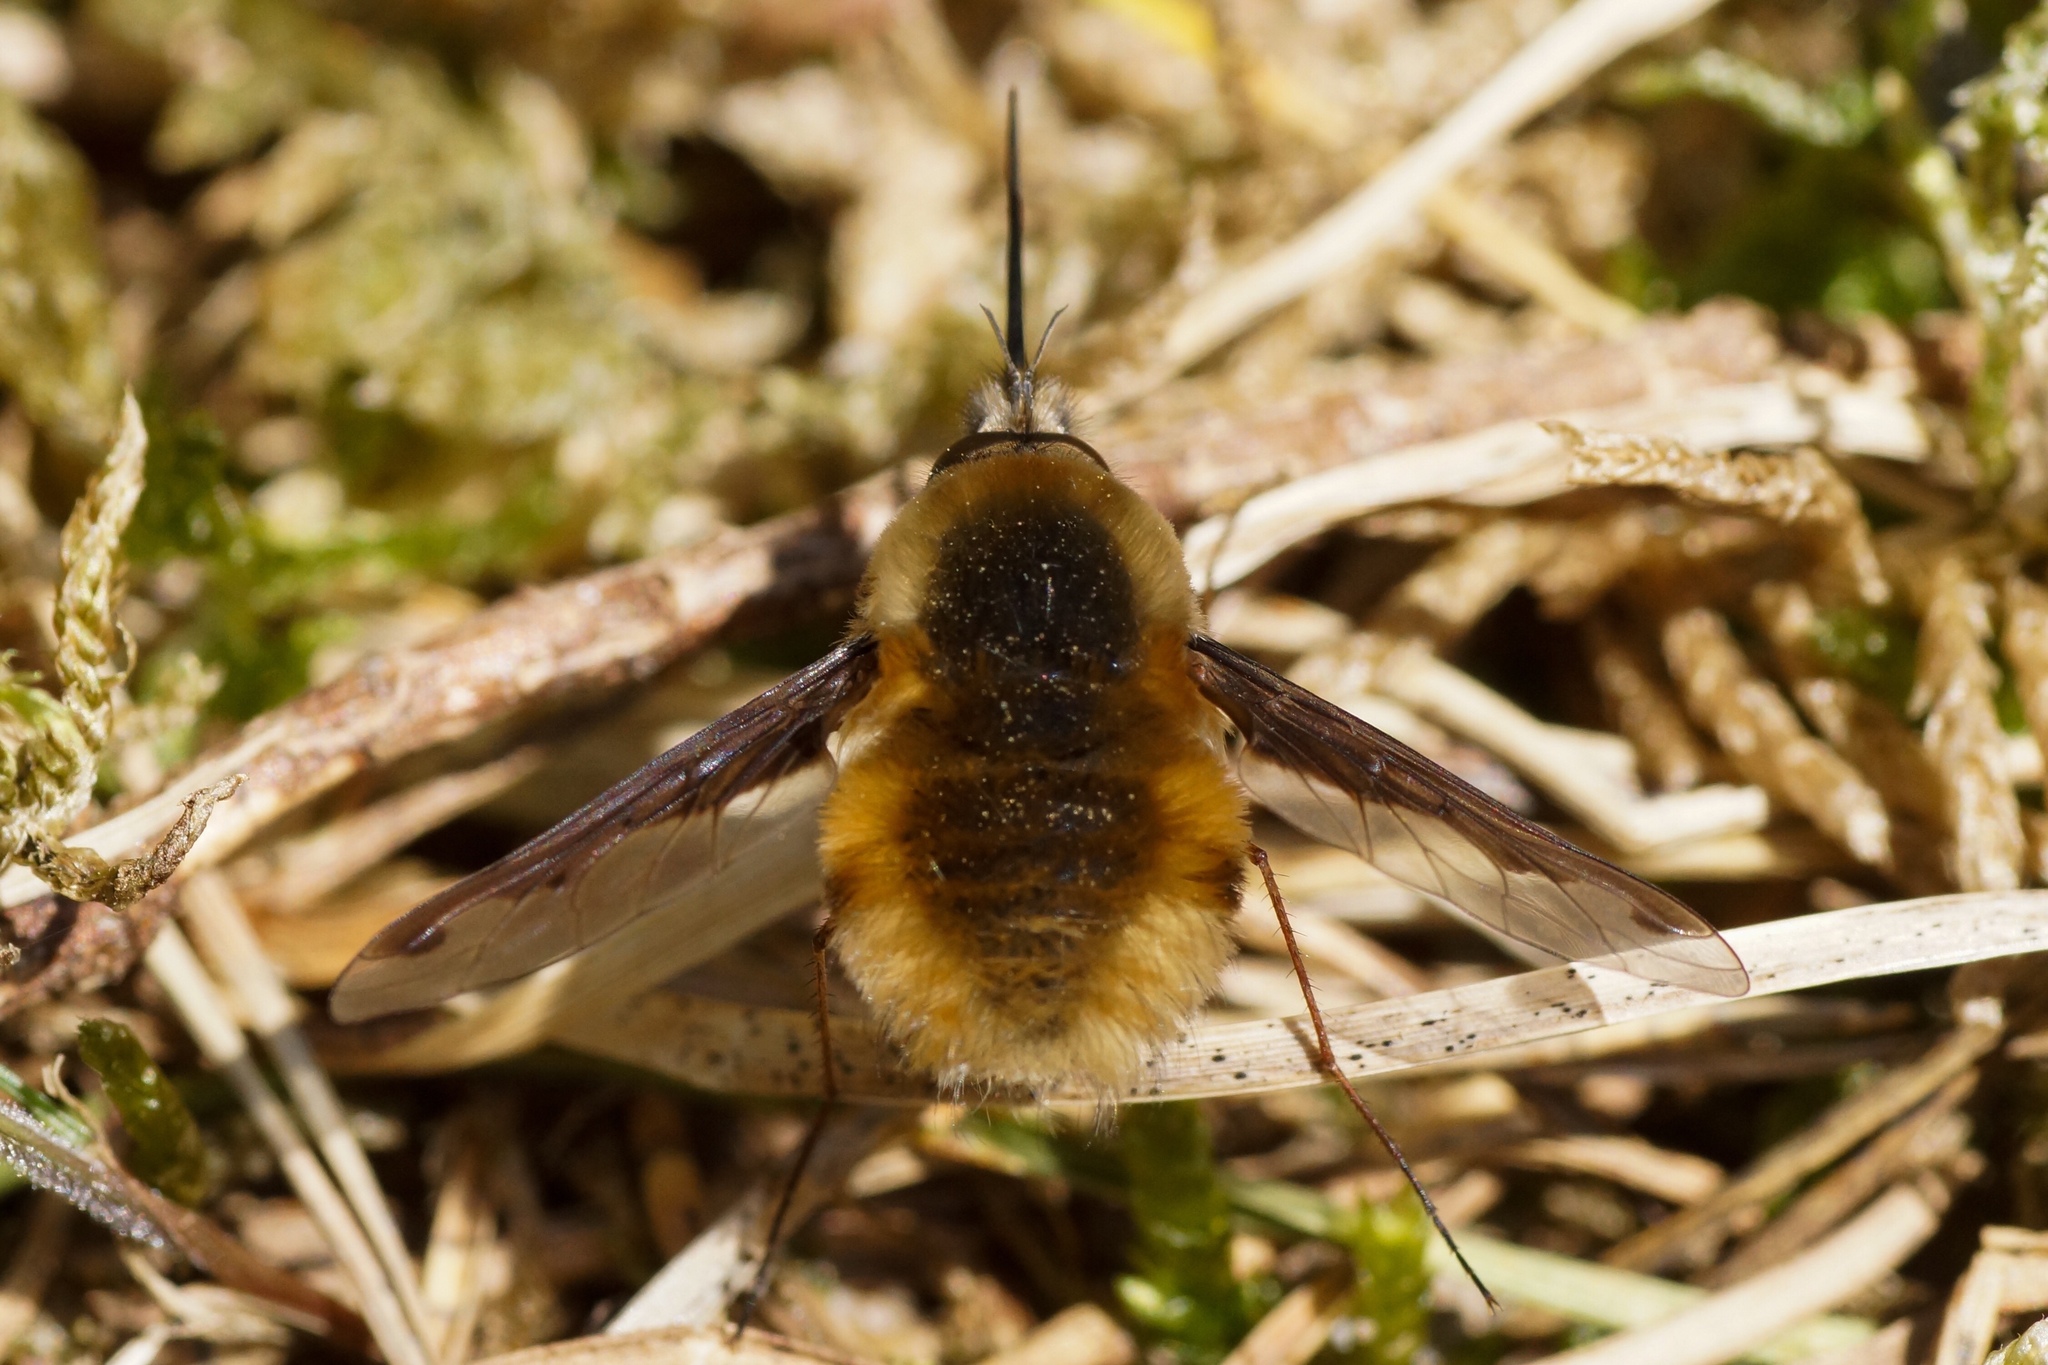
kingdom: Animalia
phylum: Arthropoda
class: Insecta
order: Diptera
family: Bombyliidae
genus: Bombylius
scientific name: Bombylius major
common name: Bee fly
